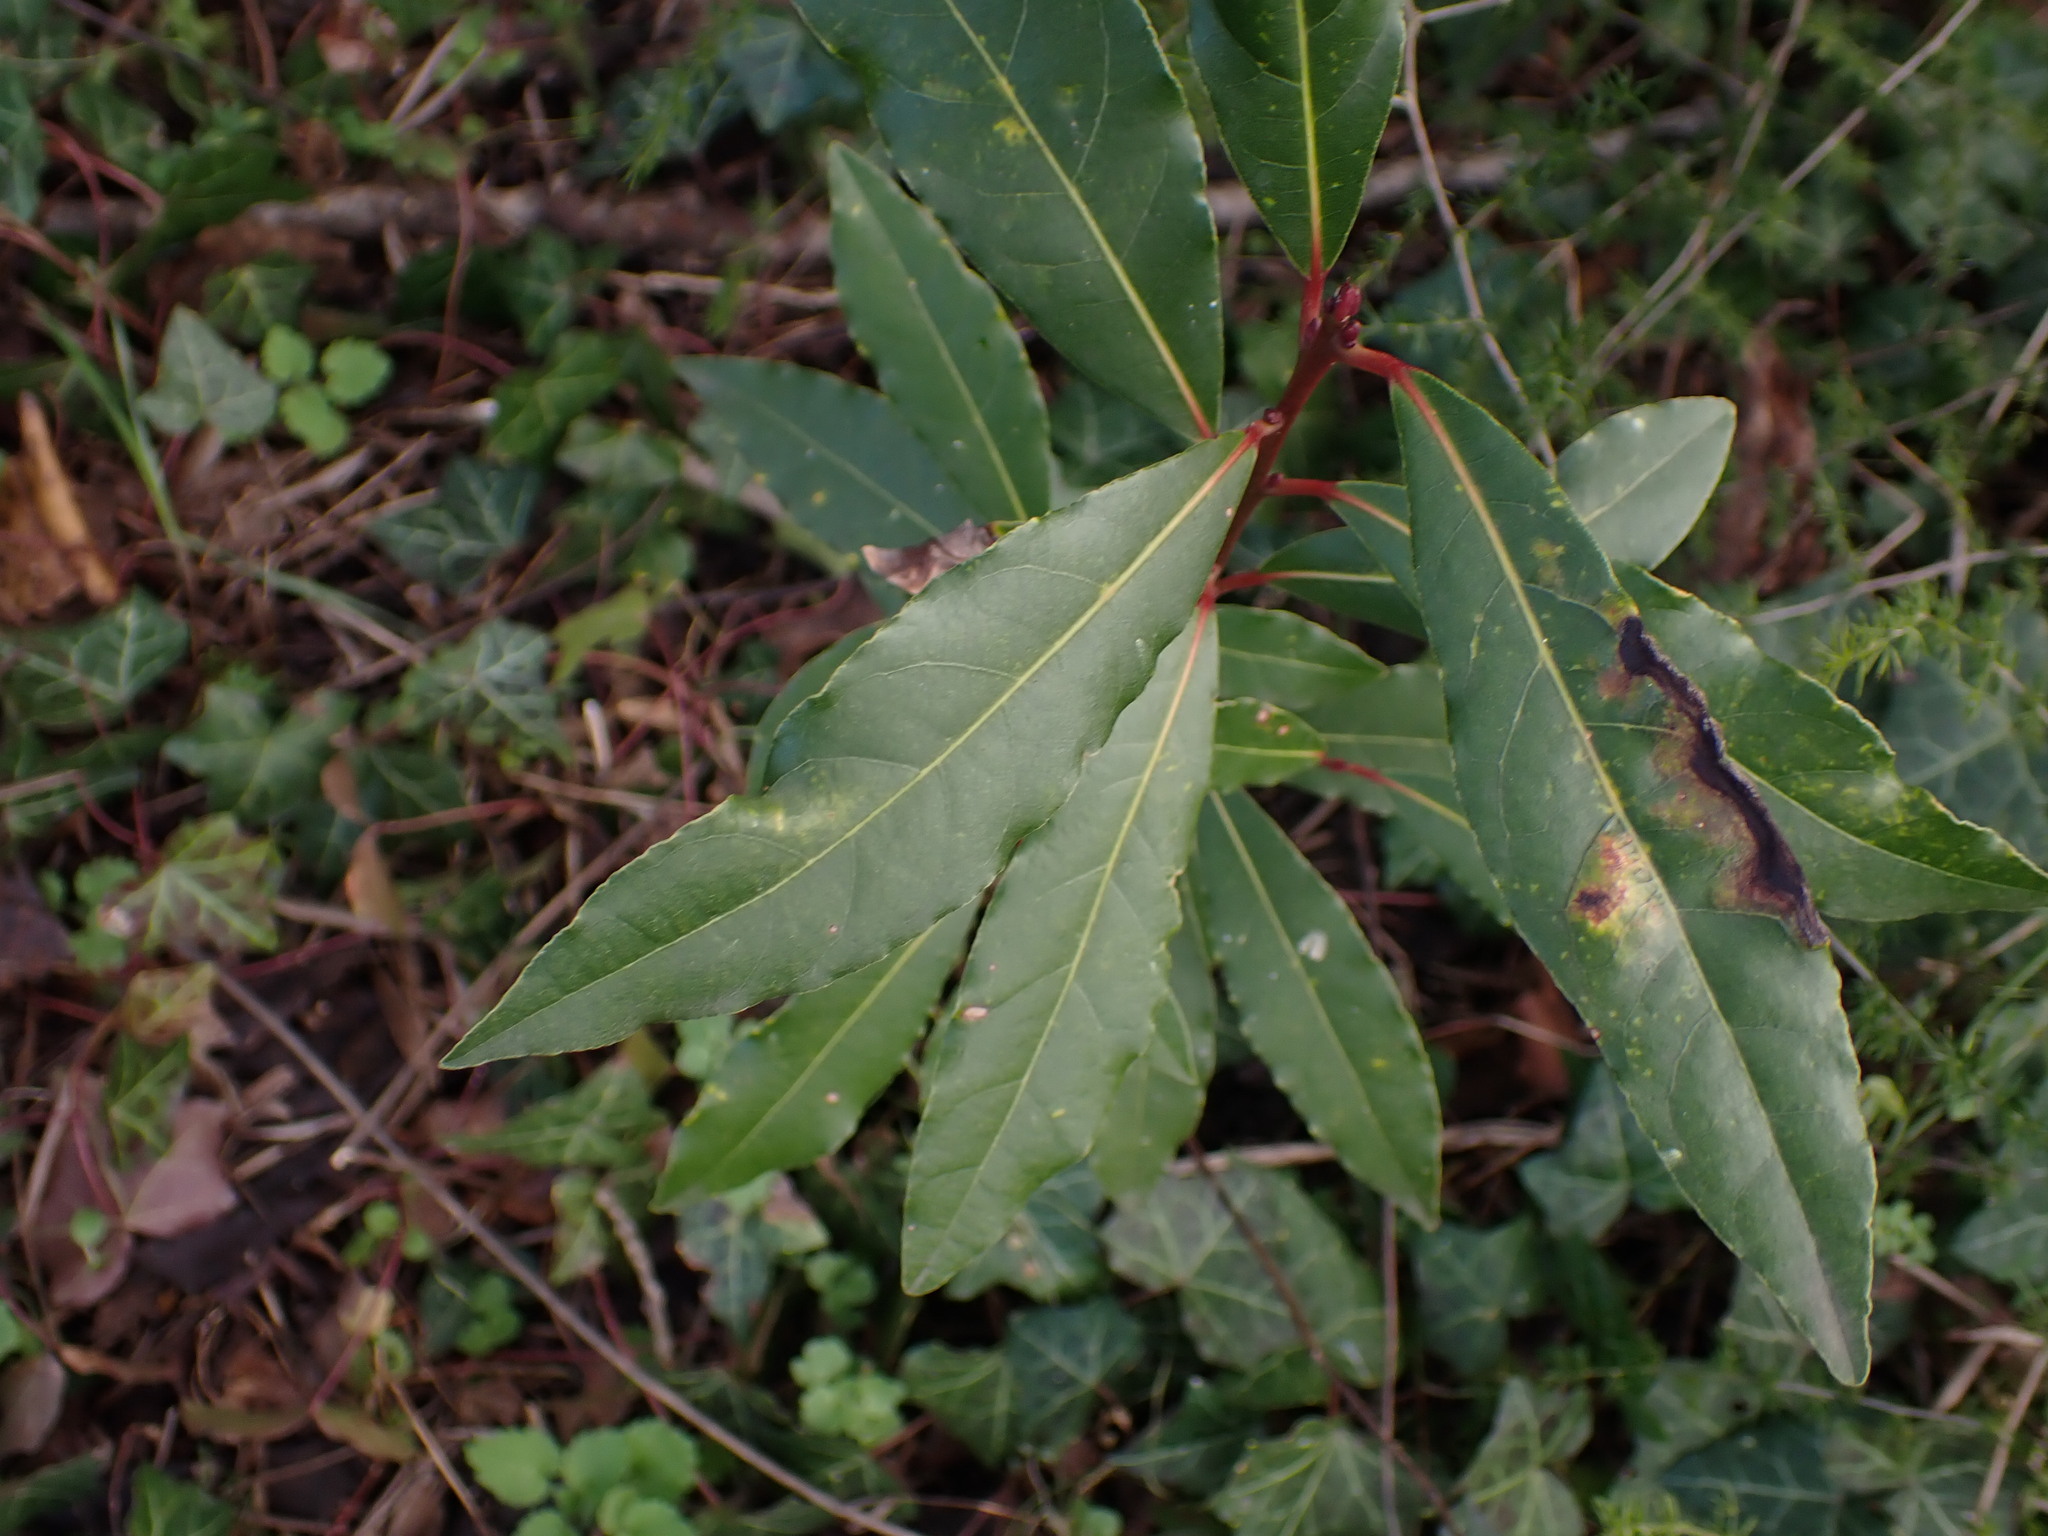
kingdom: Plantae
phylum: Tracheophyta
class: Magnoliopsida
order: Laurales
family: Lauraceae
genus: Laurus
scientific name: Laurus nobilis
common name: Bay
